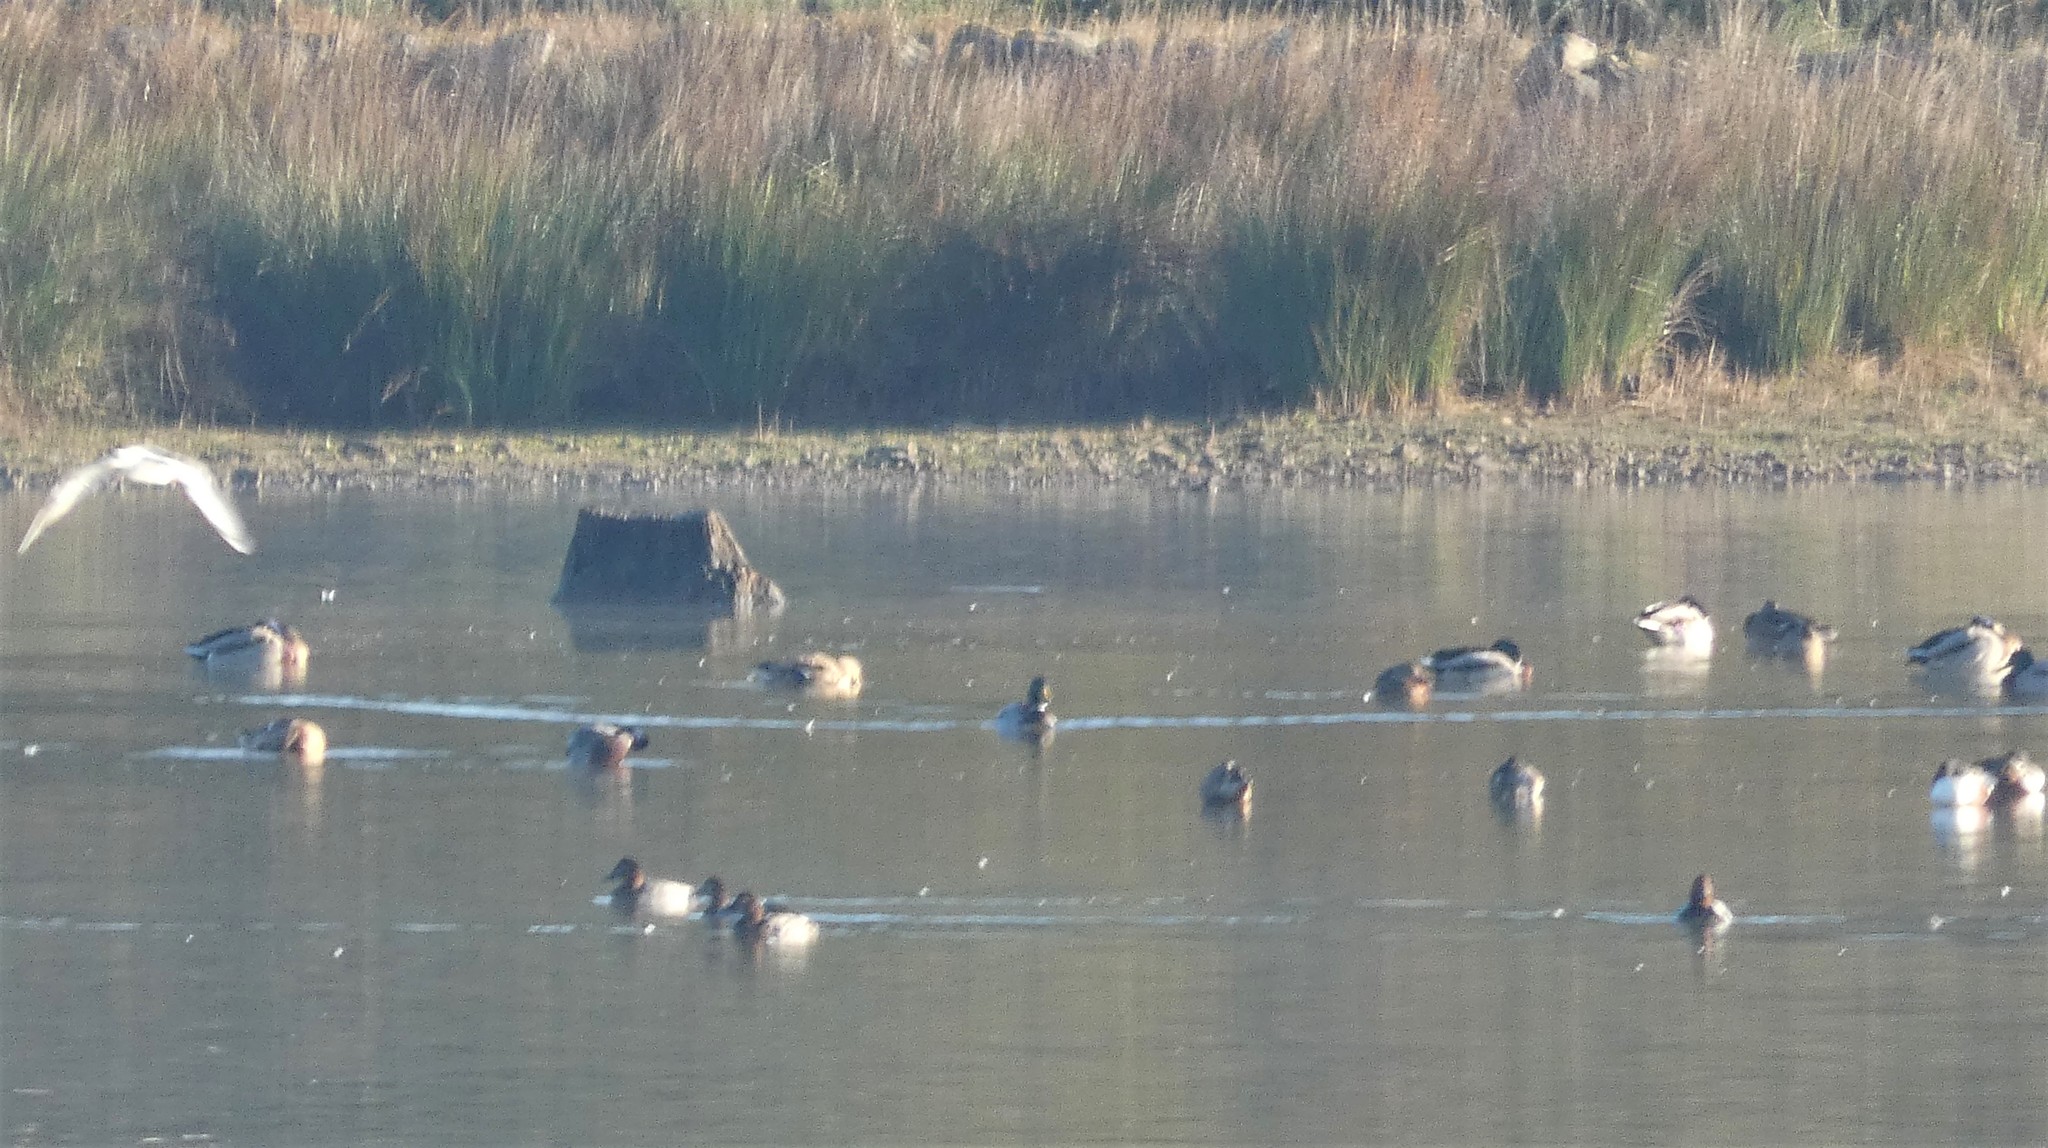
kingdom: Animalia
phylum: Chordata
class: Aves
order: Anseriformes
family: Anatidae
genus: Anas
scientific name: Anas platyrhynchos
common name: Mallard
